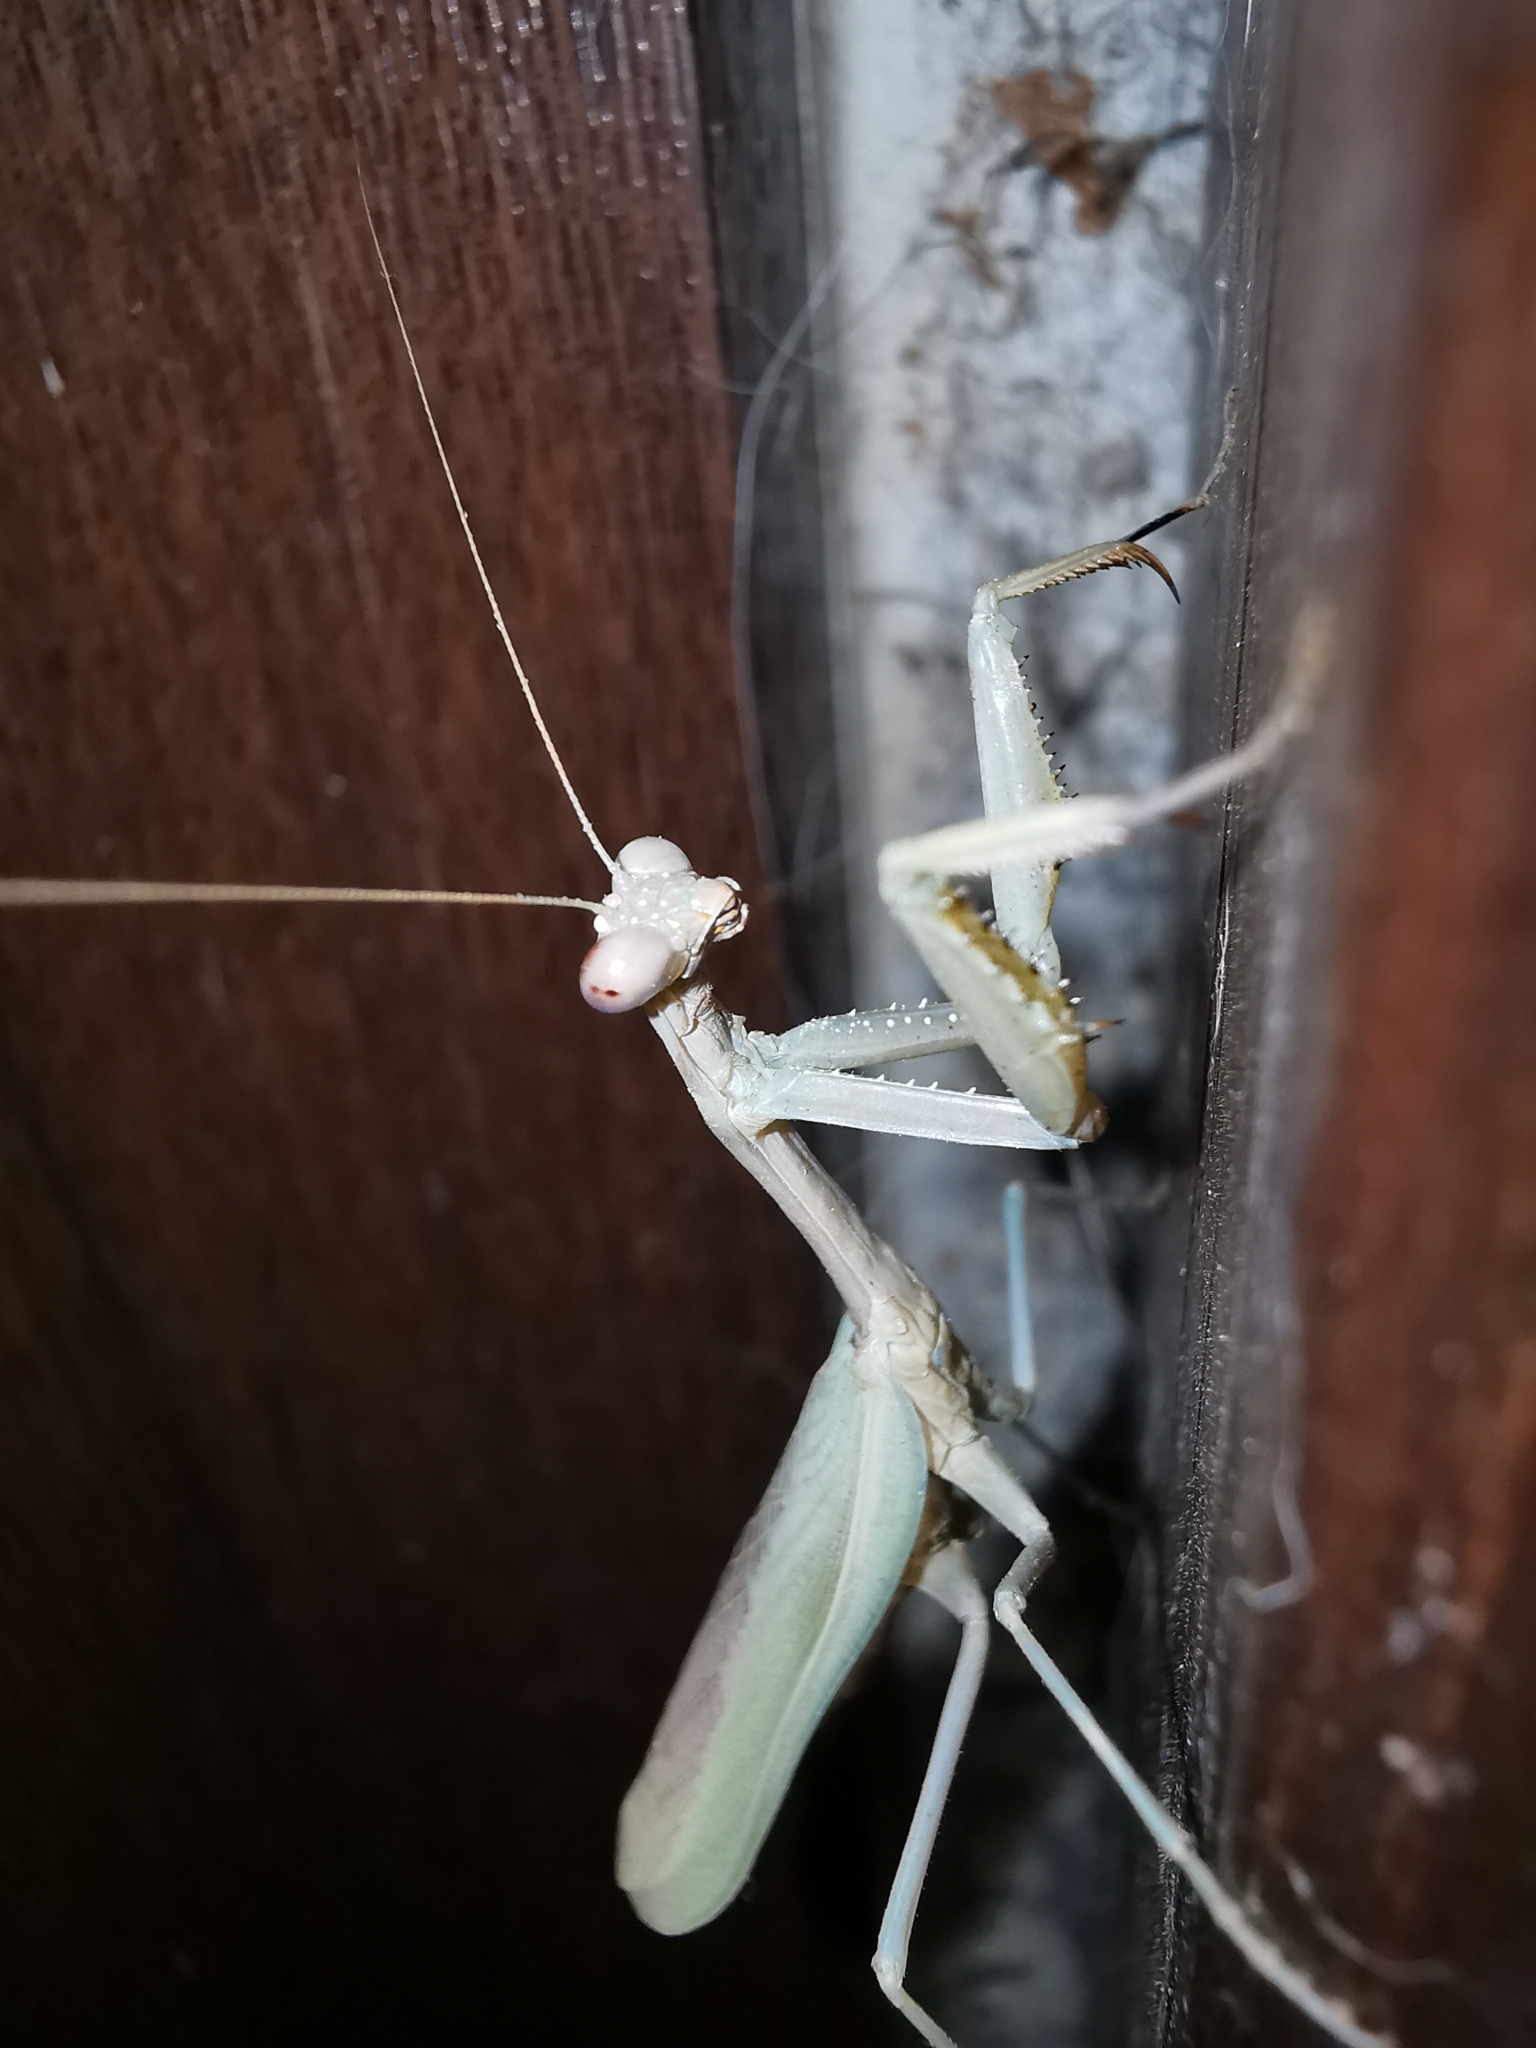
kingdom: Animalia
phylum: Arthropoda
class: Insecta
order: Mantodea
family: Eremiaphilidae
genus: Iris
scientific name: Iris oratoria
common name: Mediterranean mantis
